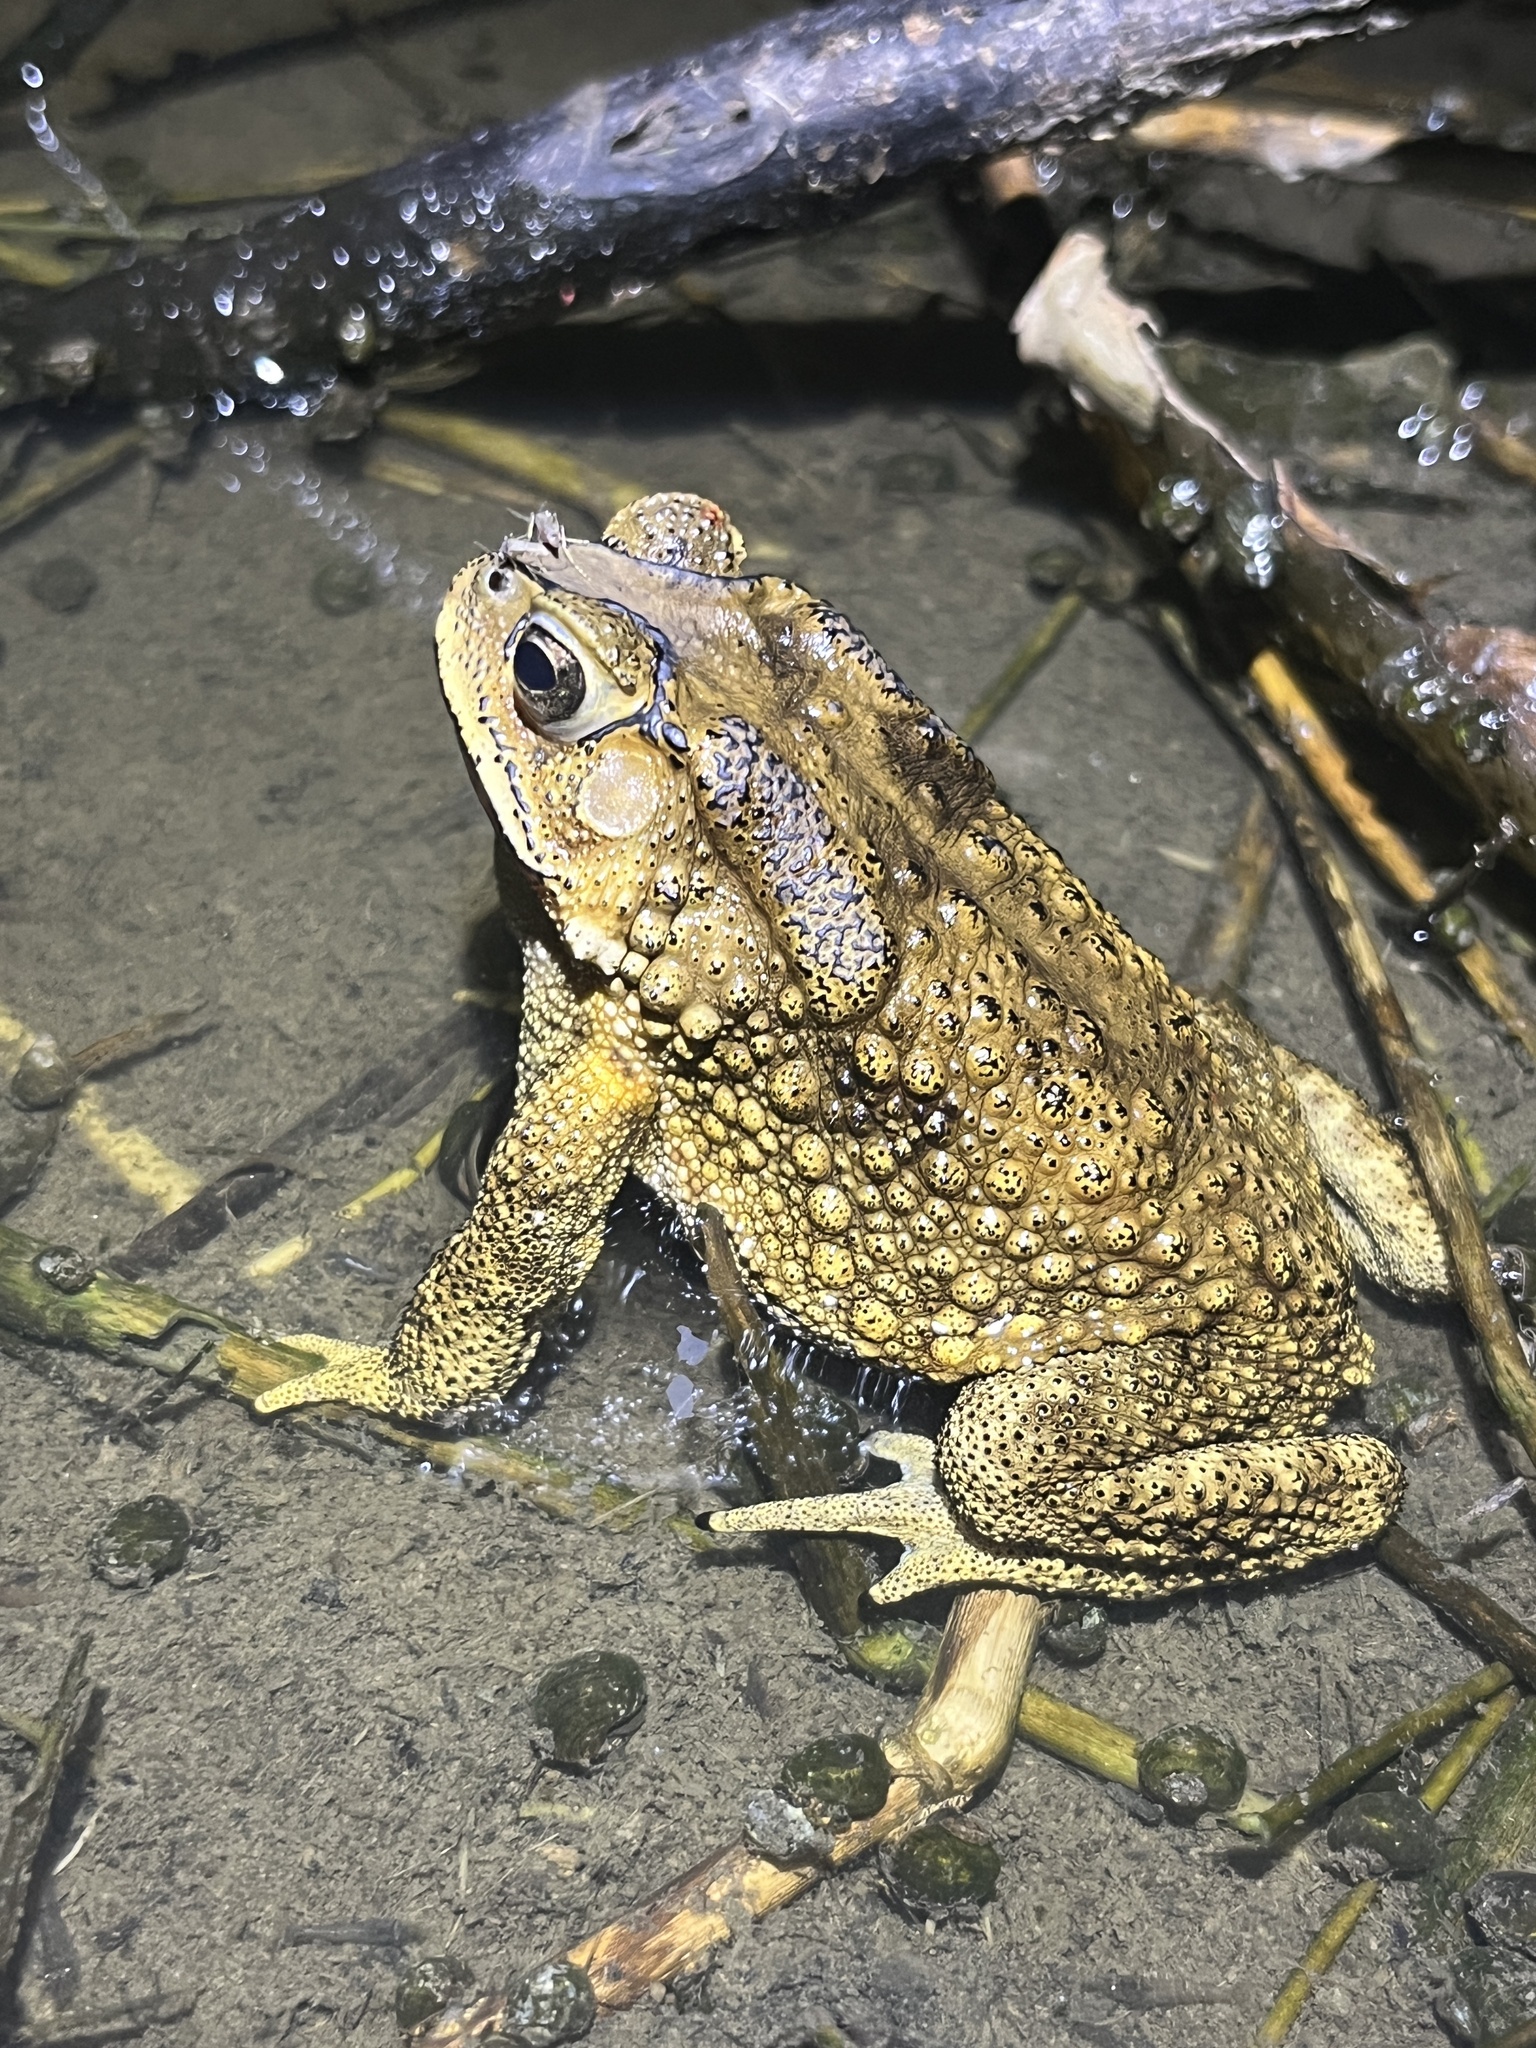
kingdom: Animalia
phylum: Chordata
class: Amphibia
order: Anura
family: Bufonidae
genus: Duttaphrynus
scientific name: Duttaphrynus melanostictus
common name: Common sunda toad
